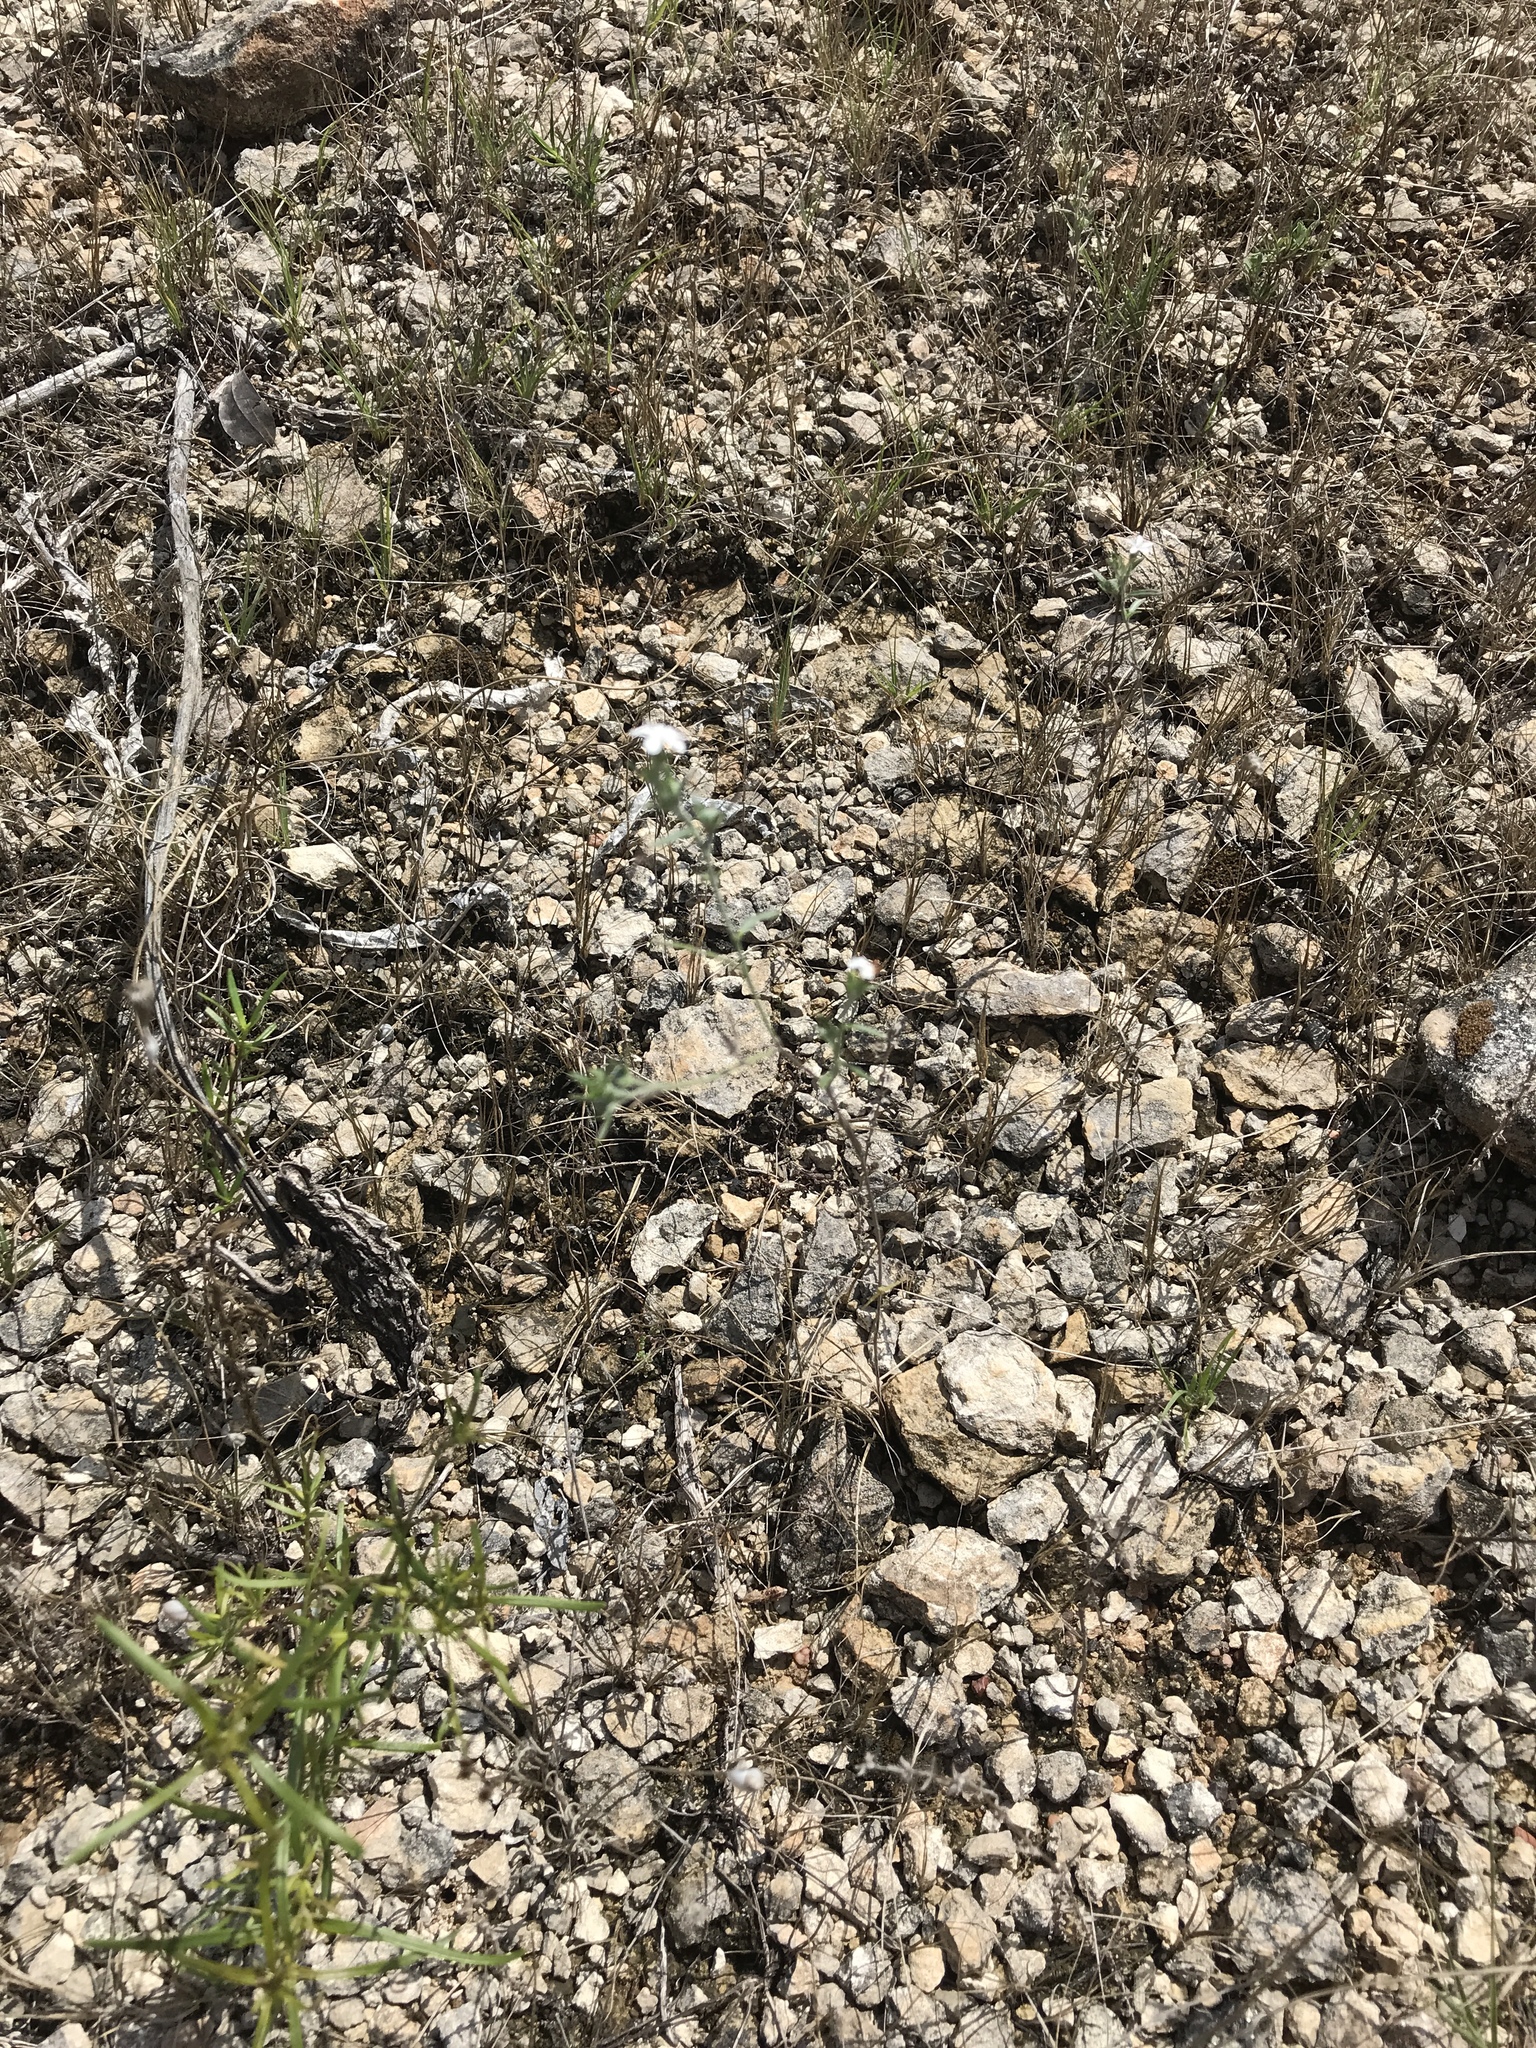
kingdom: Plantae
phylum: Tracheophyta
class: Magnoliopsida
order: Boraginales
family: Heliotropiaceae
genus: Euploca
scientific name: Euploca tenella
